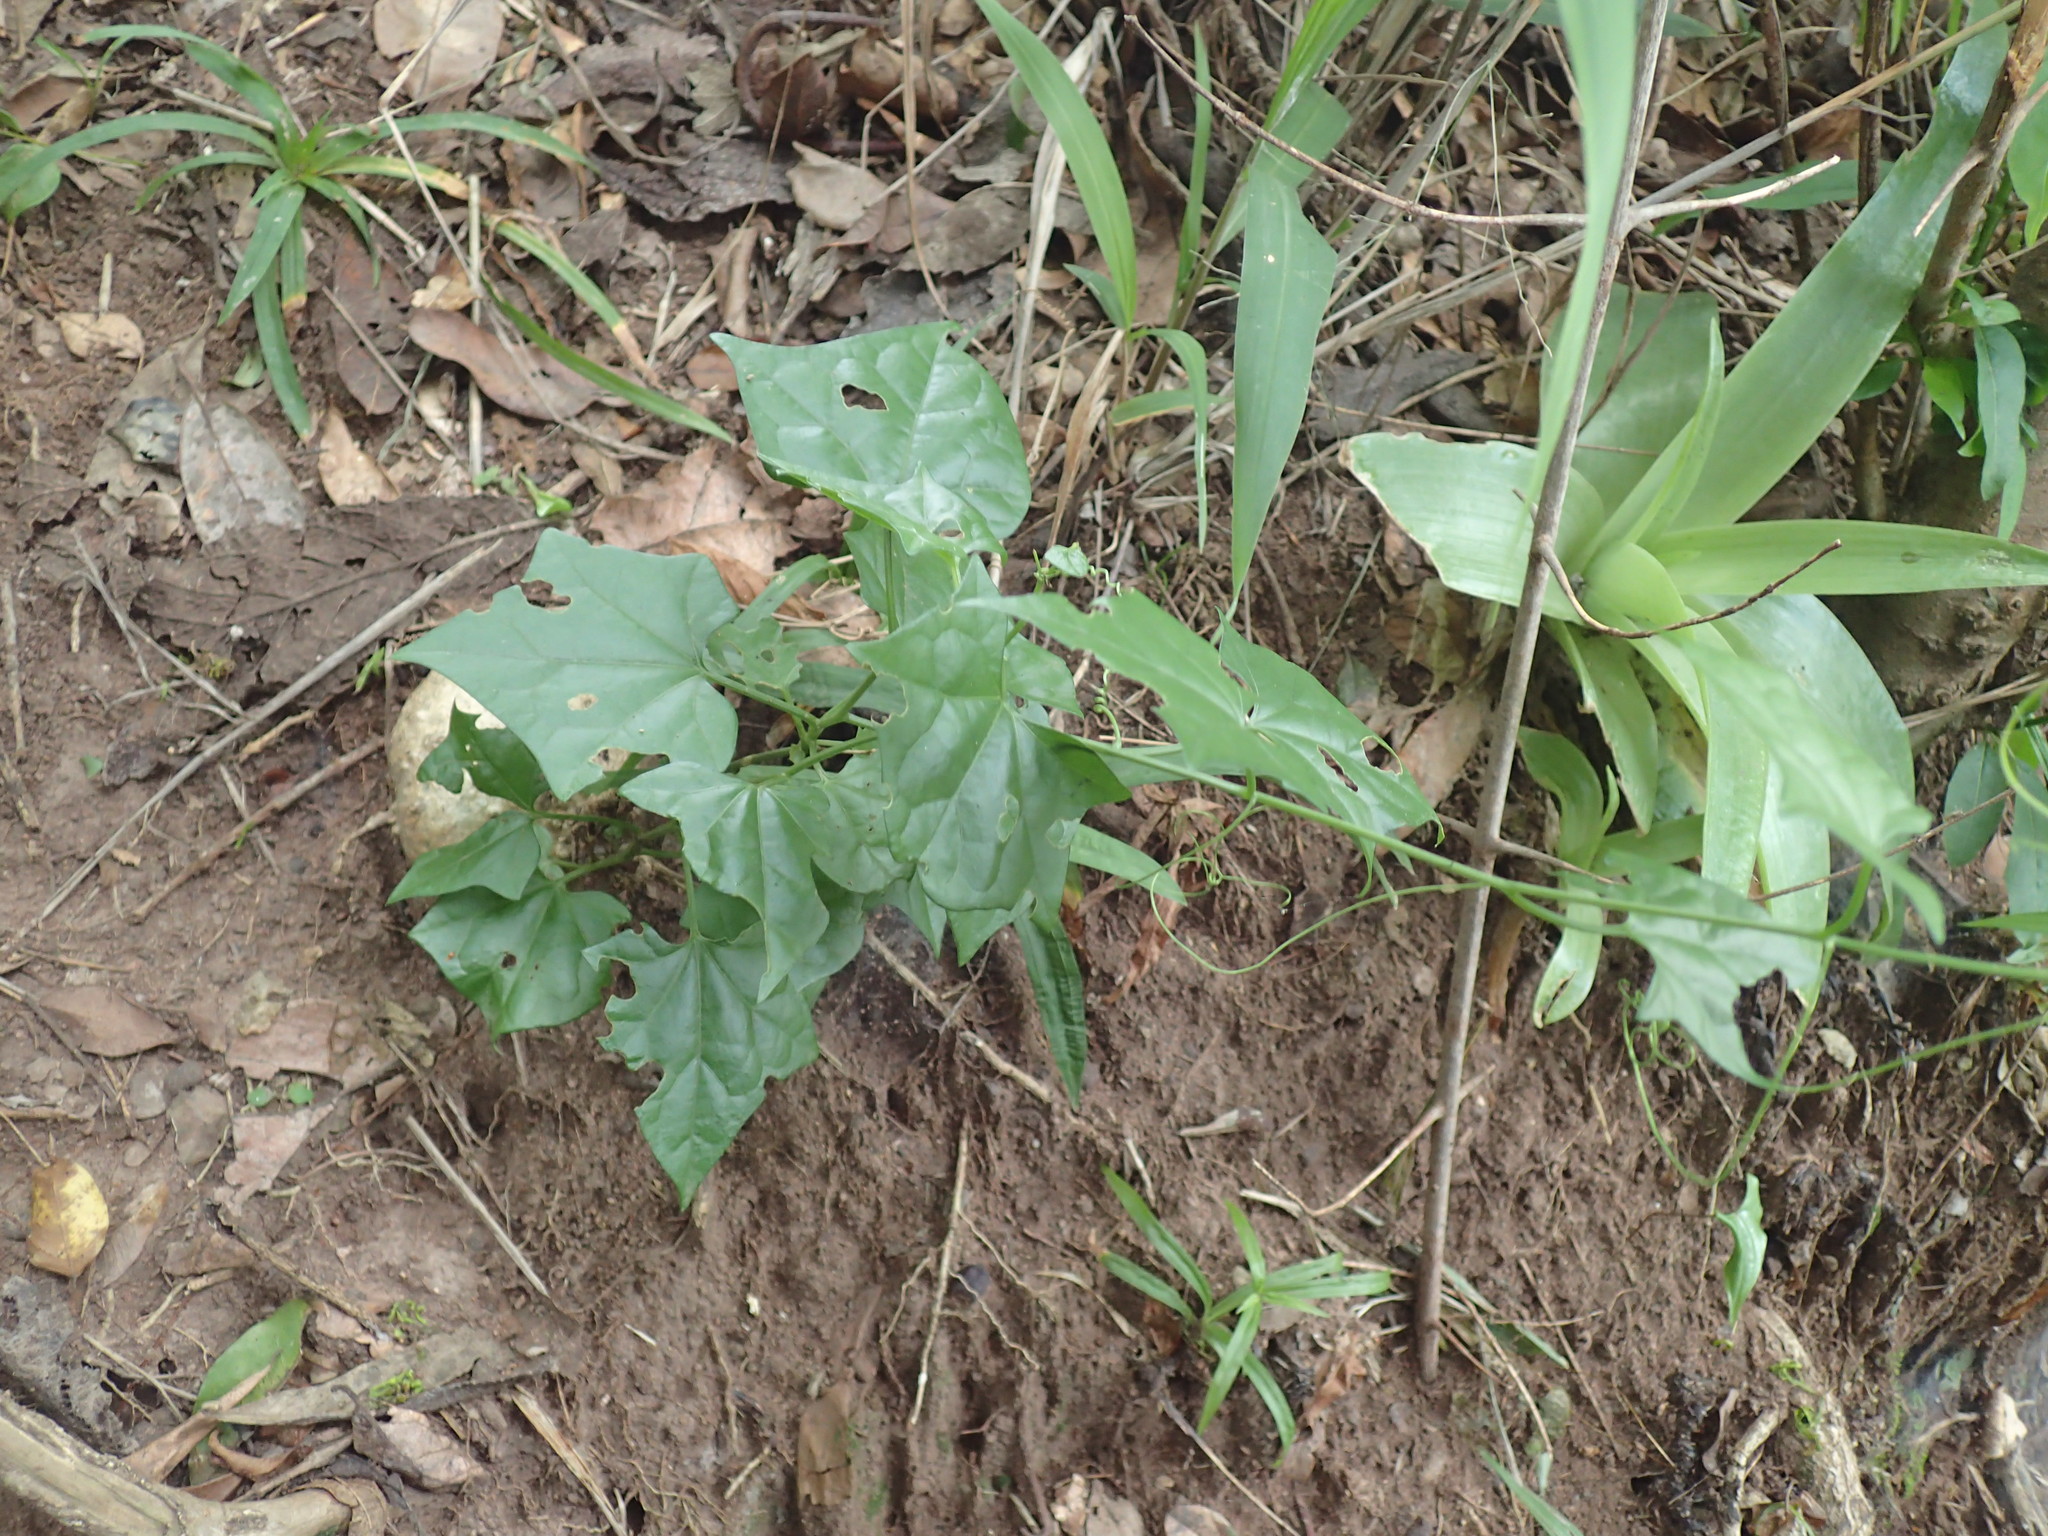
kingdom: Plantae
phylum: Tracheophyta
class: Magnoliopsida
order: Cucurbitales
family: Cucurbitaceae
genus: Gerrardanthus
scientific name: Gerrardanthus macrorhizus
